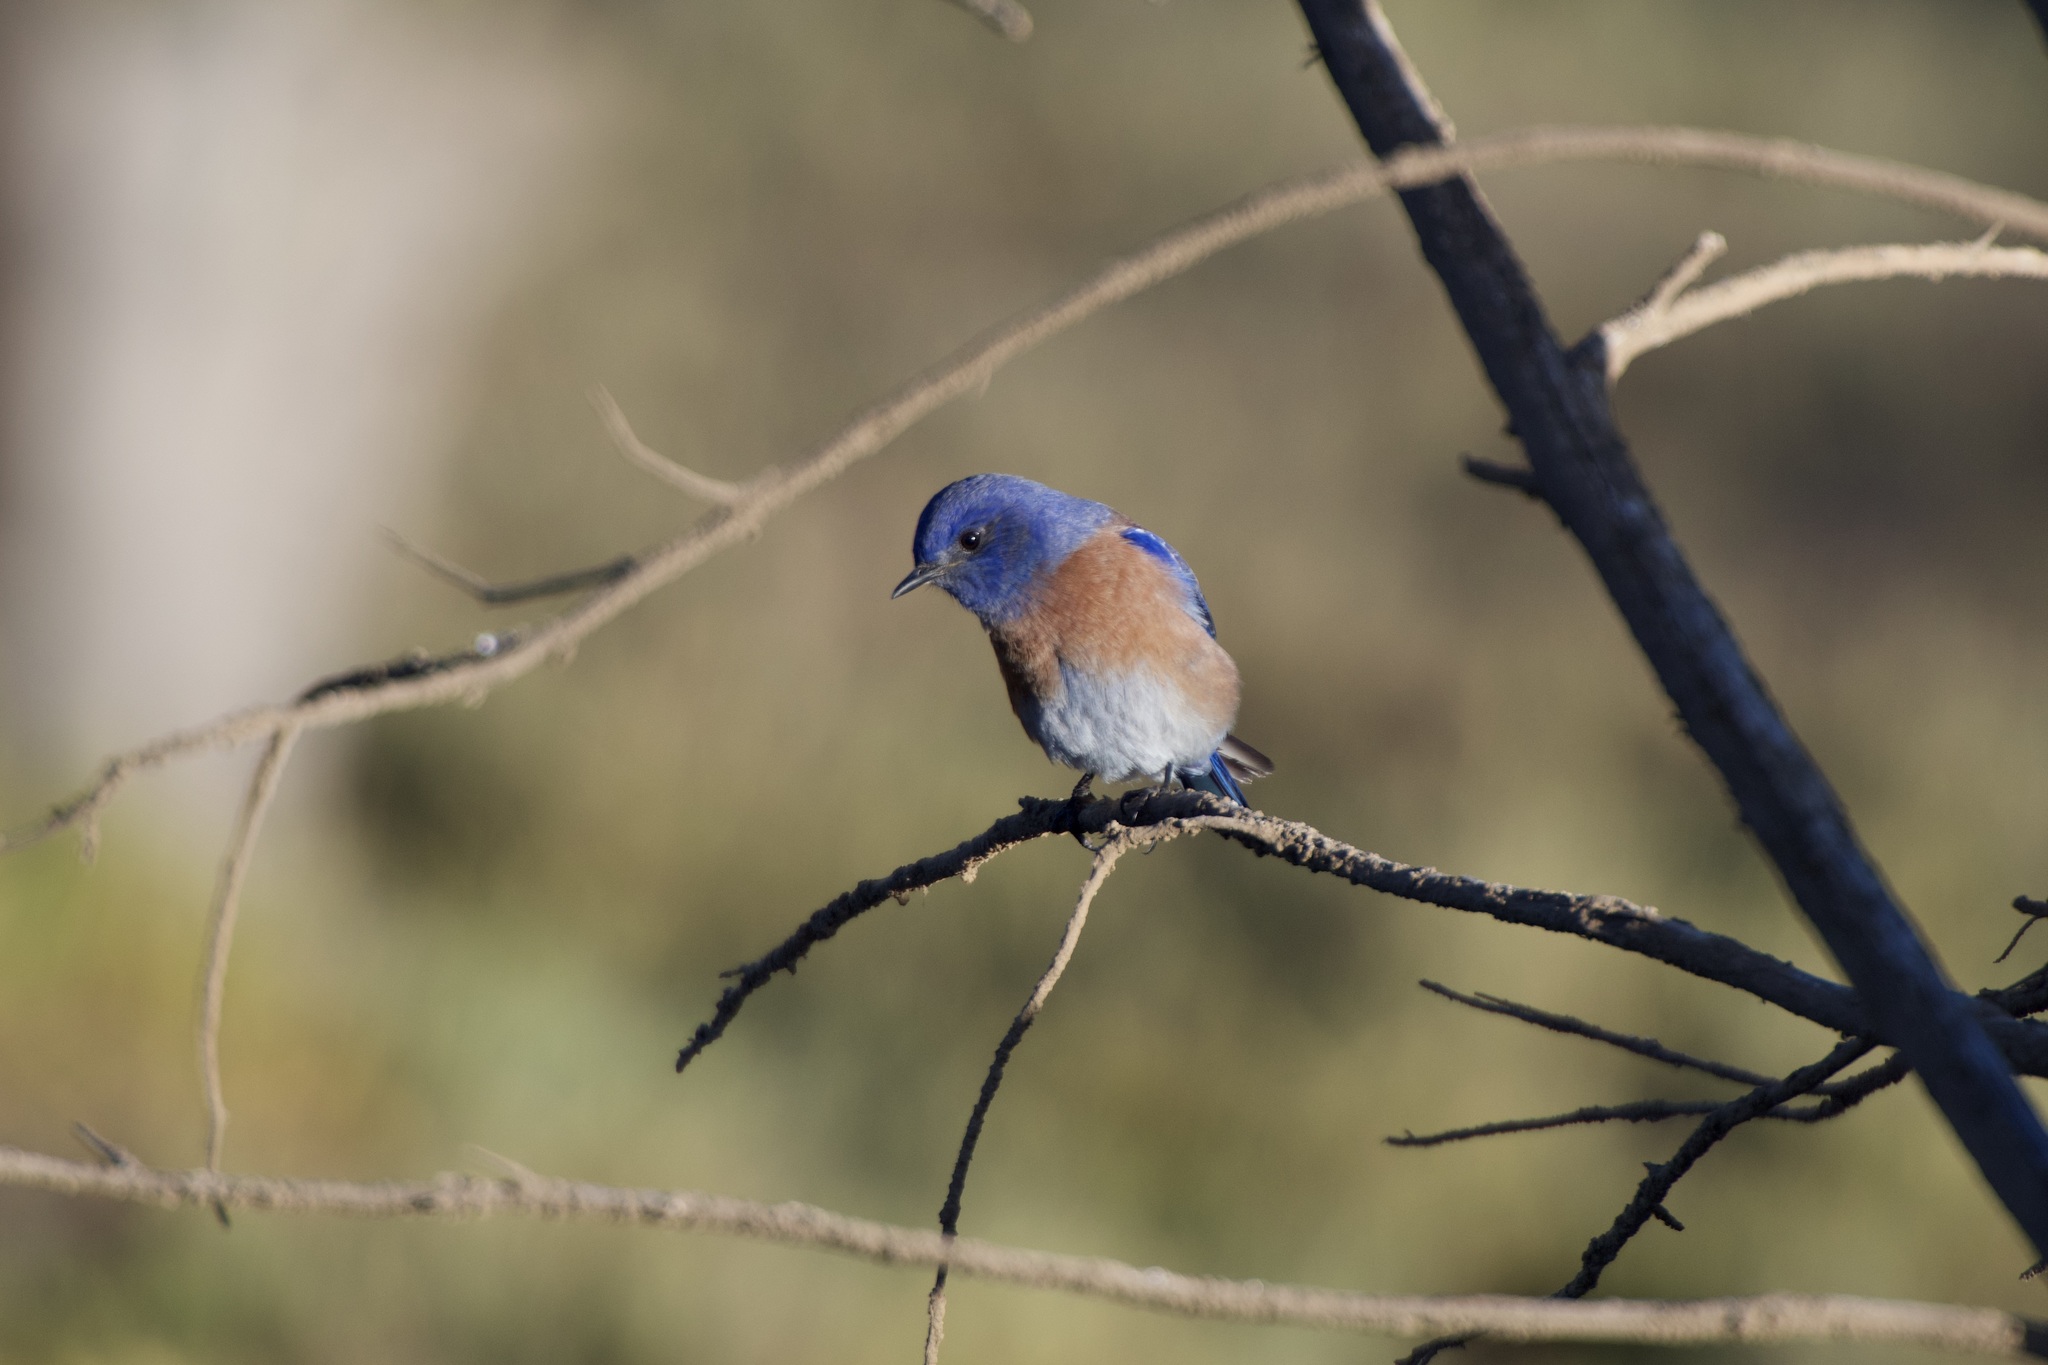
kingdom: Animalia
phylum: Chordata
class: Aves
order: Passeriformes
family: Turdidae
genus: Sialia
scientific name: Sialia mexicana
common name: Western bluebird
